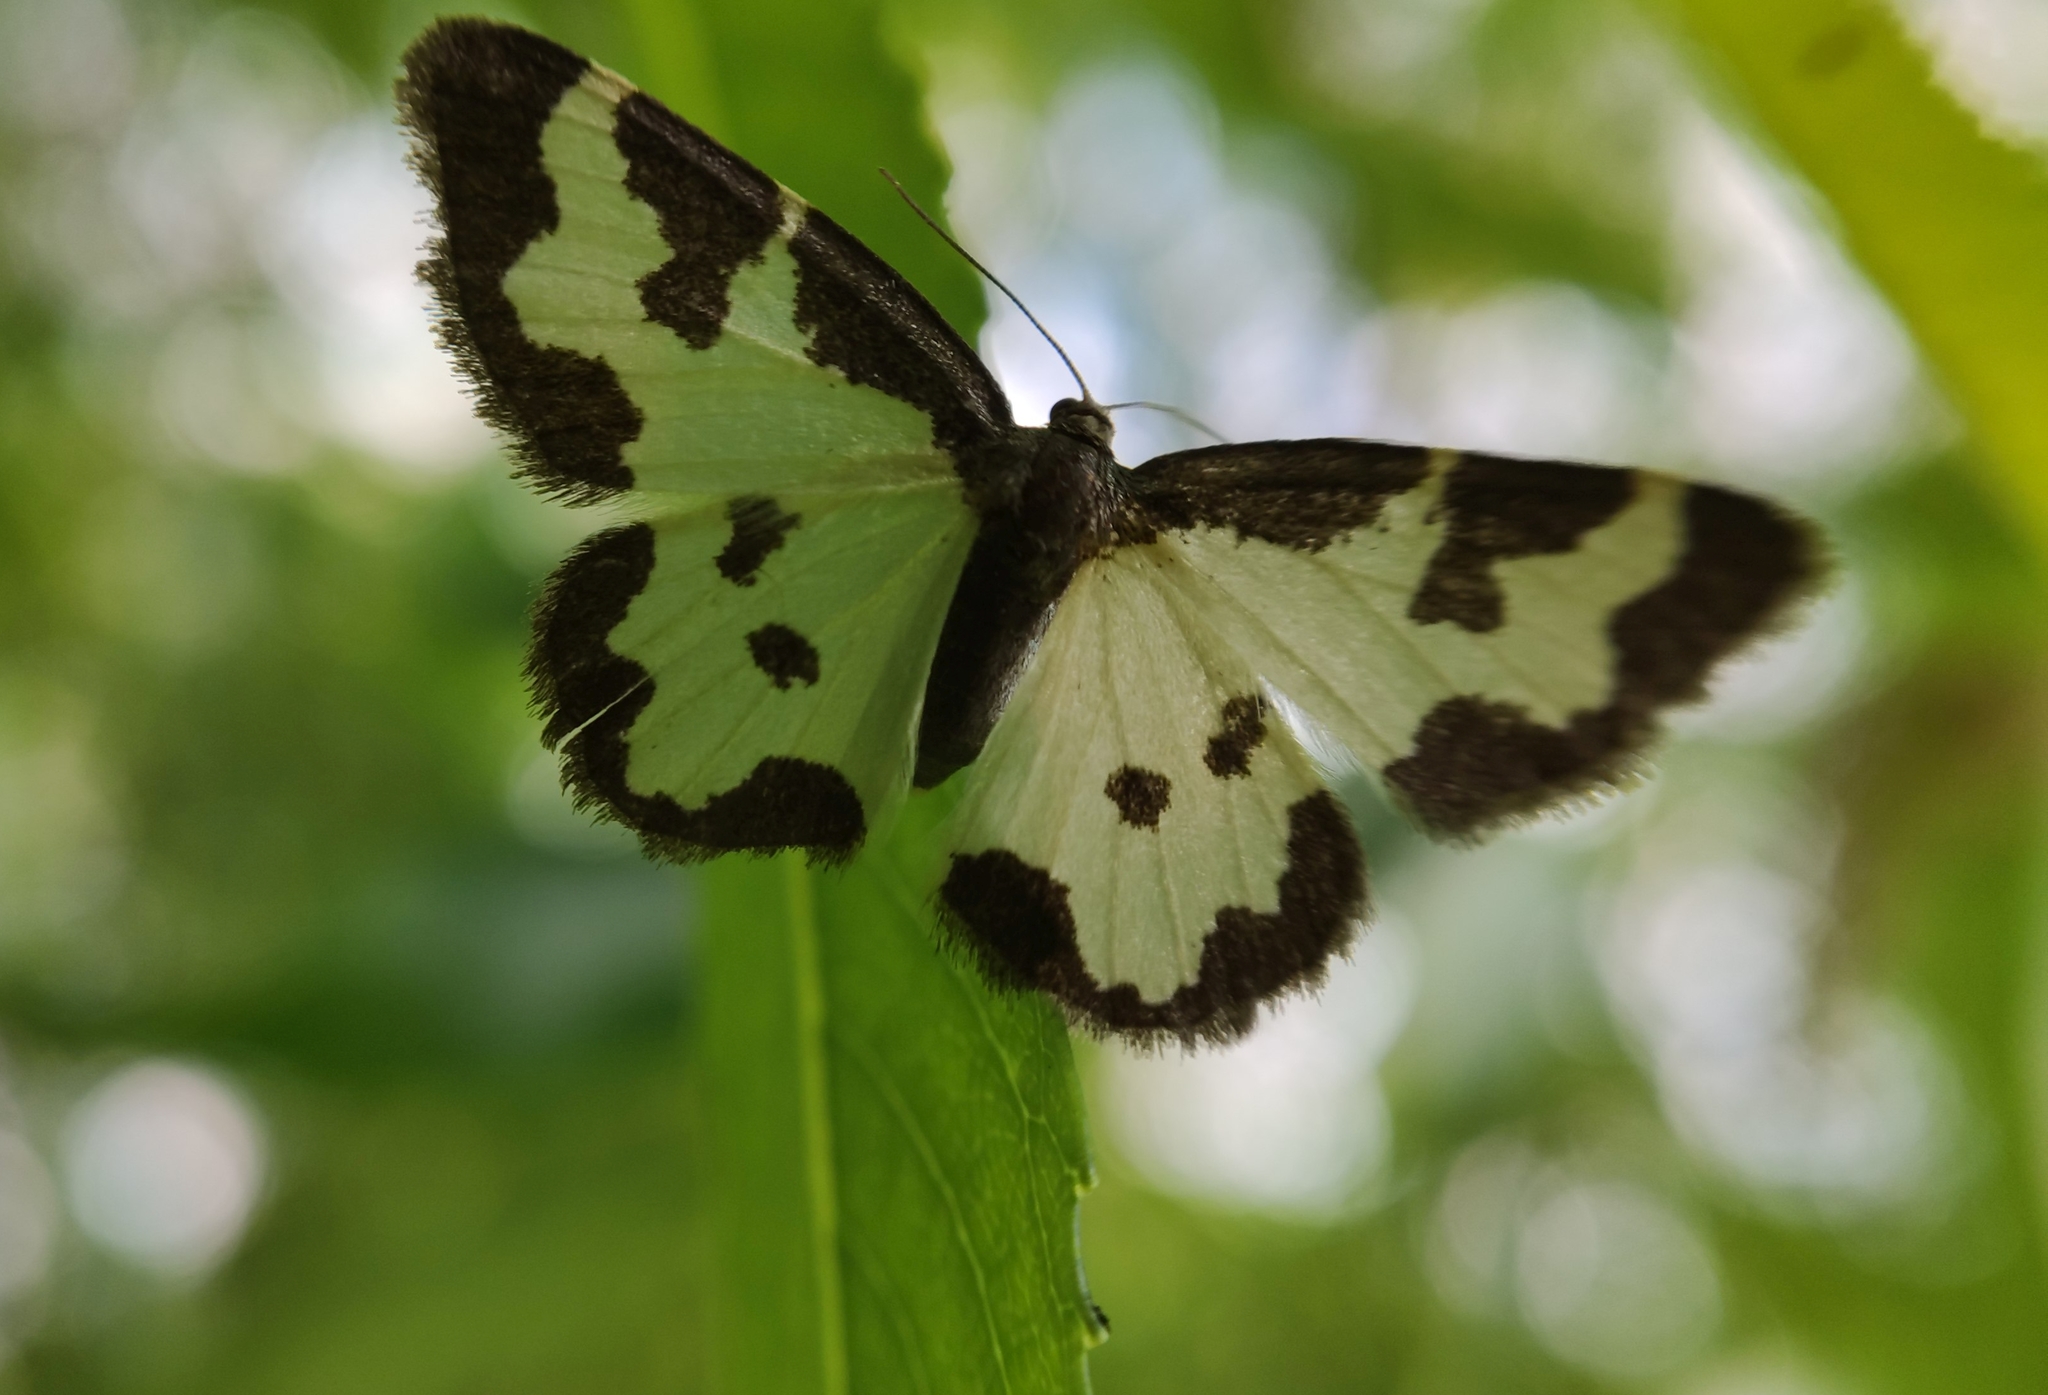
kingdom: Animalia
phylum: Arthropoda
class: Insecta
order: Lepidoptera
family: Geometridae
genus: Lomaspilis
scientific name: Lomaspilis marginata
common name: Clouded border
